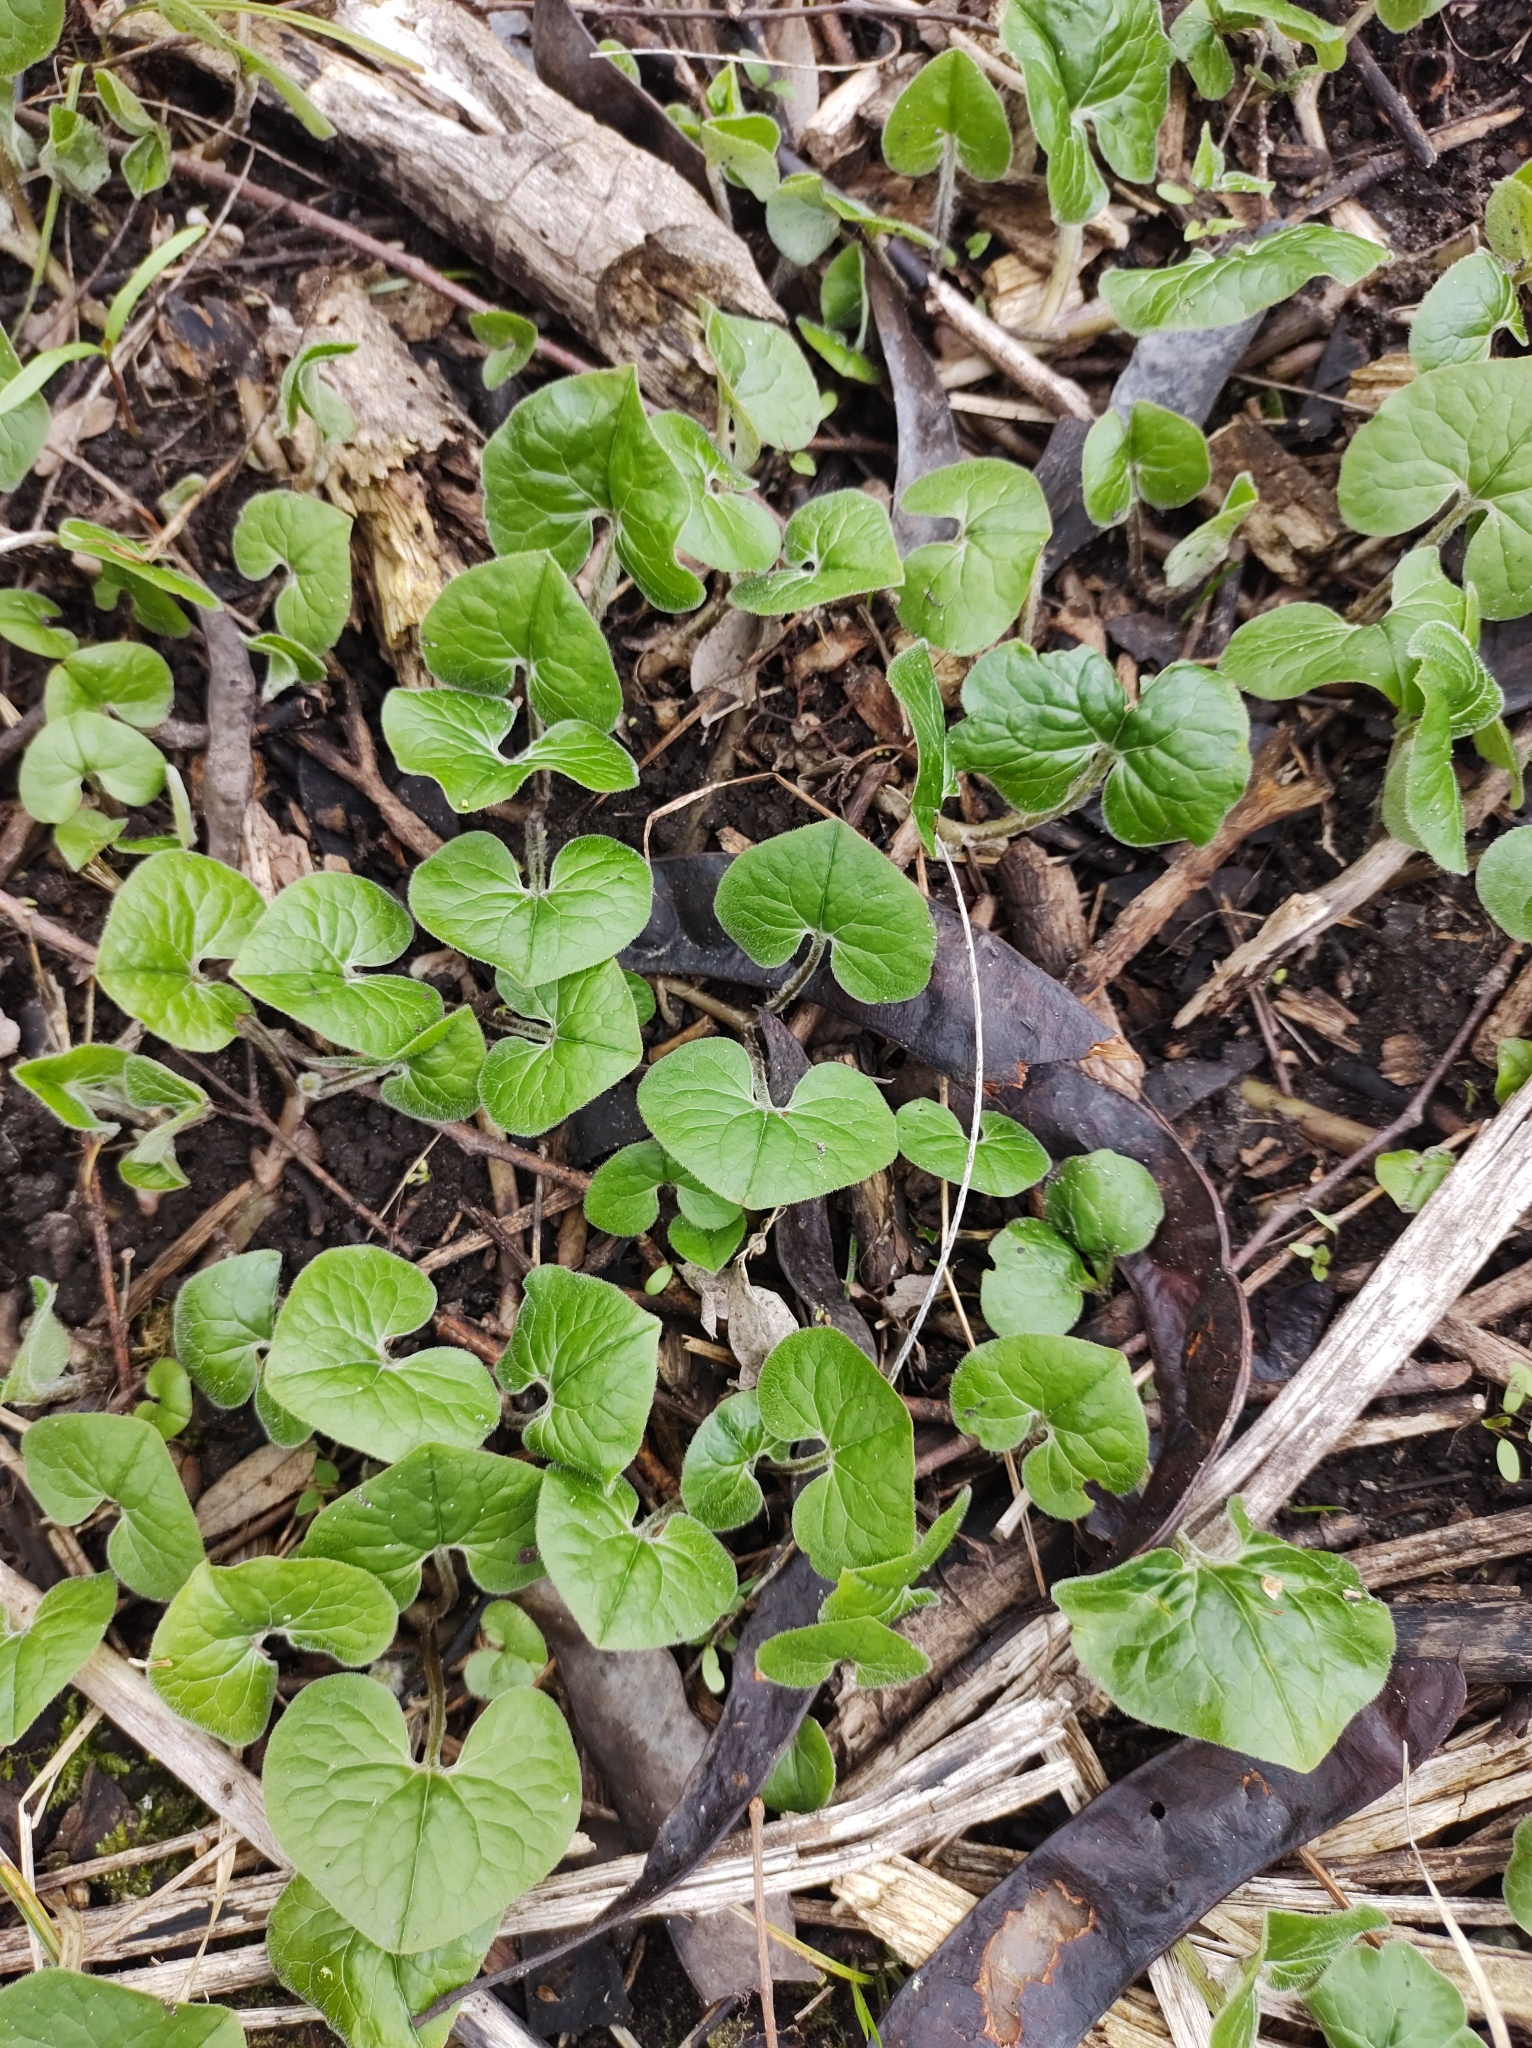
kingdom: Plantae
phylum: Tracheophyta
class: Magnoliopsida
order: Piperales
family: Aristolochiaceae
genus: Asarum
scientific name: Asarum canadense
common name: Wild ginger
